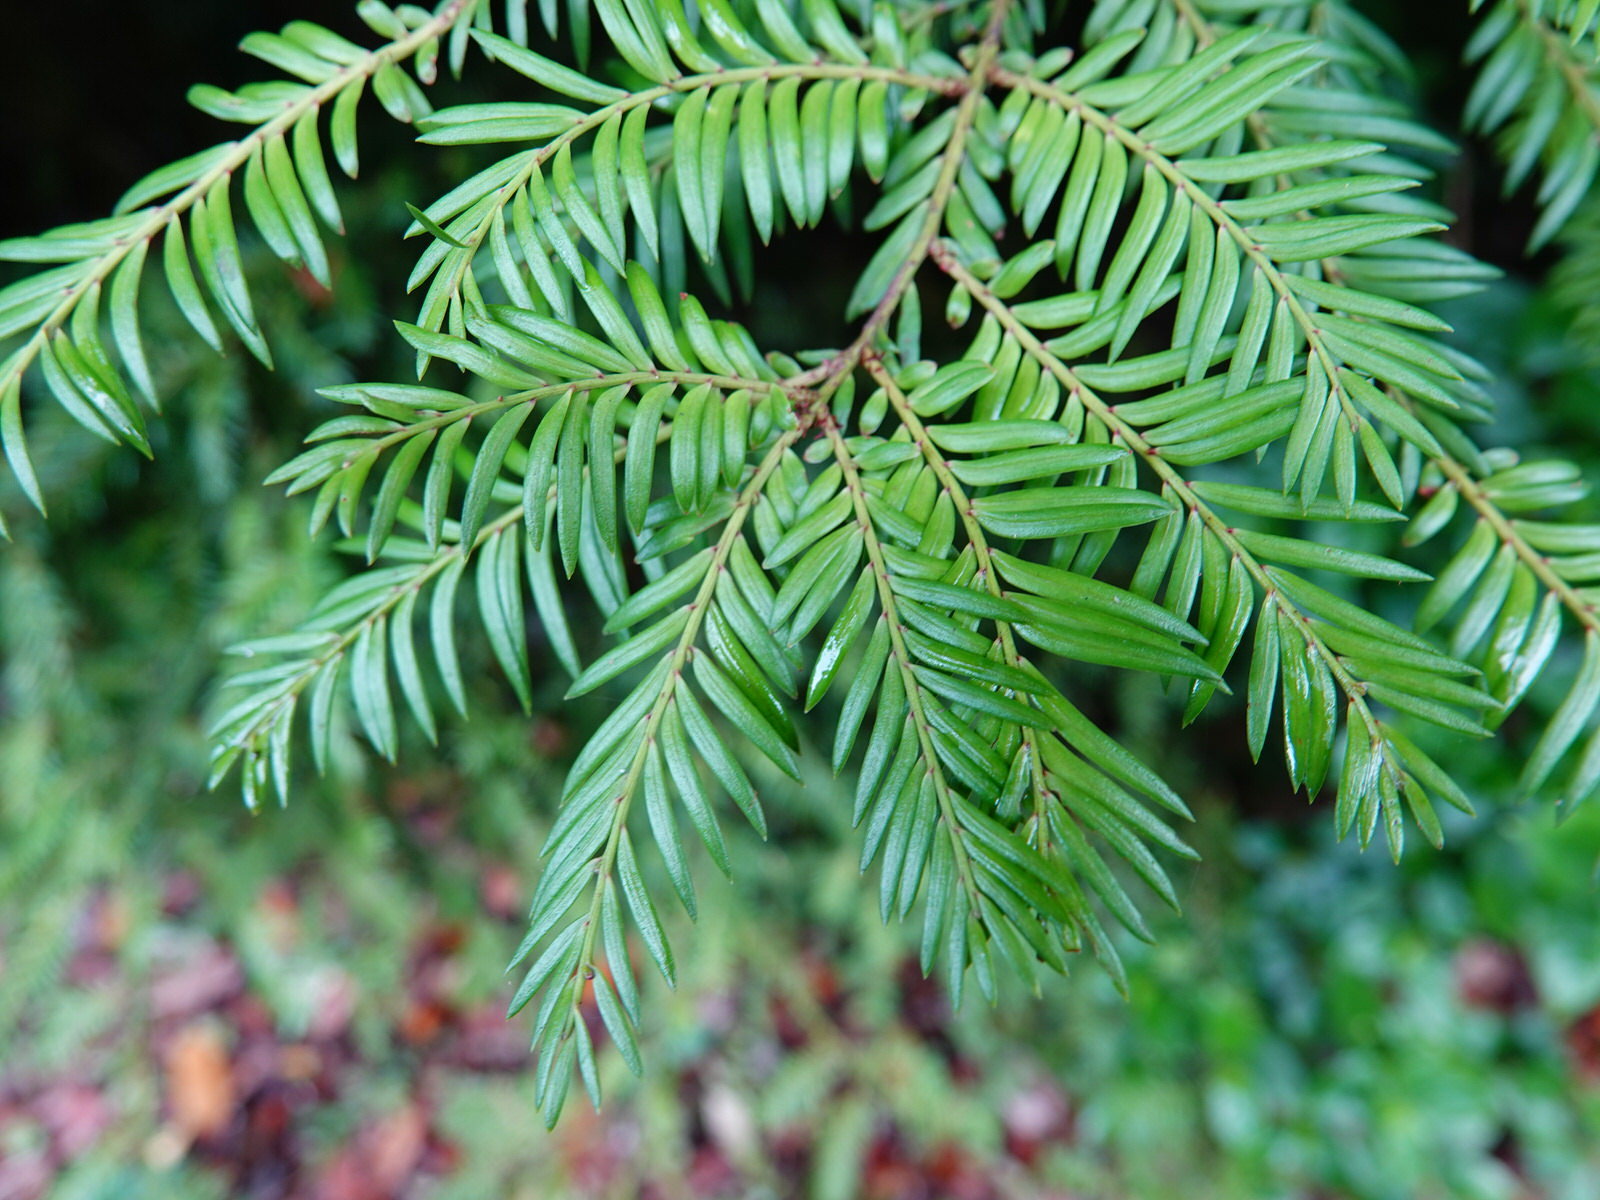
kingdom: Plantae
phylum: Tracheophyta
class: Pinopsida
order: Pinales
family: Podocarpaceae
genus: Prumnopitys
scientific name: Prumnopitys ferruginea
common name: Brown pine
